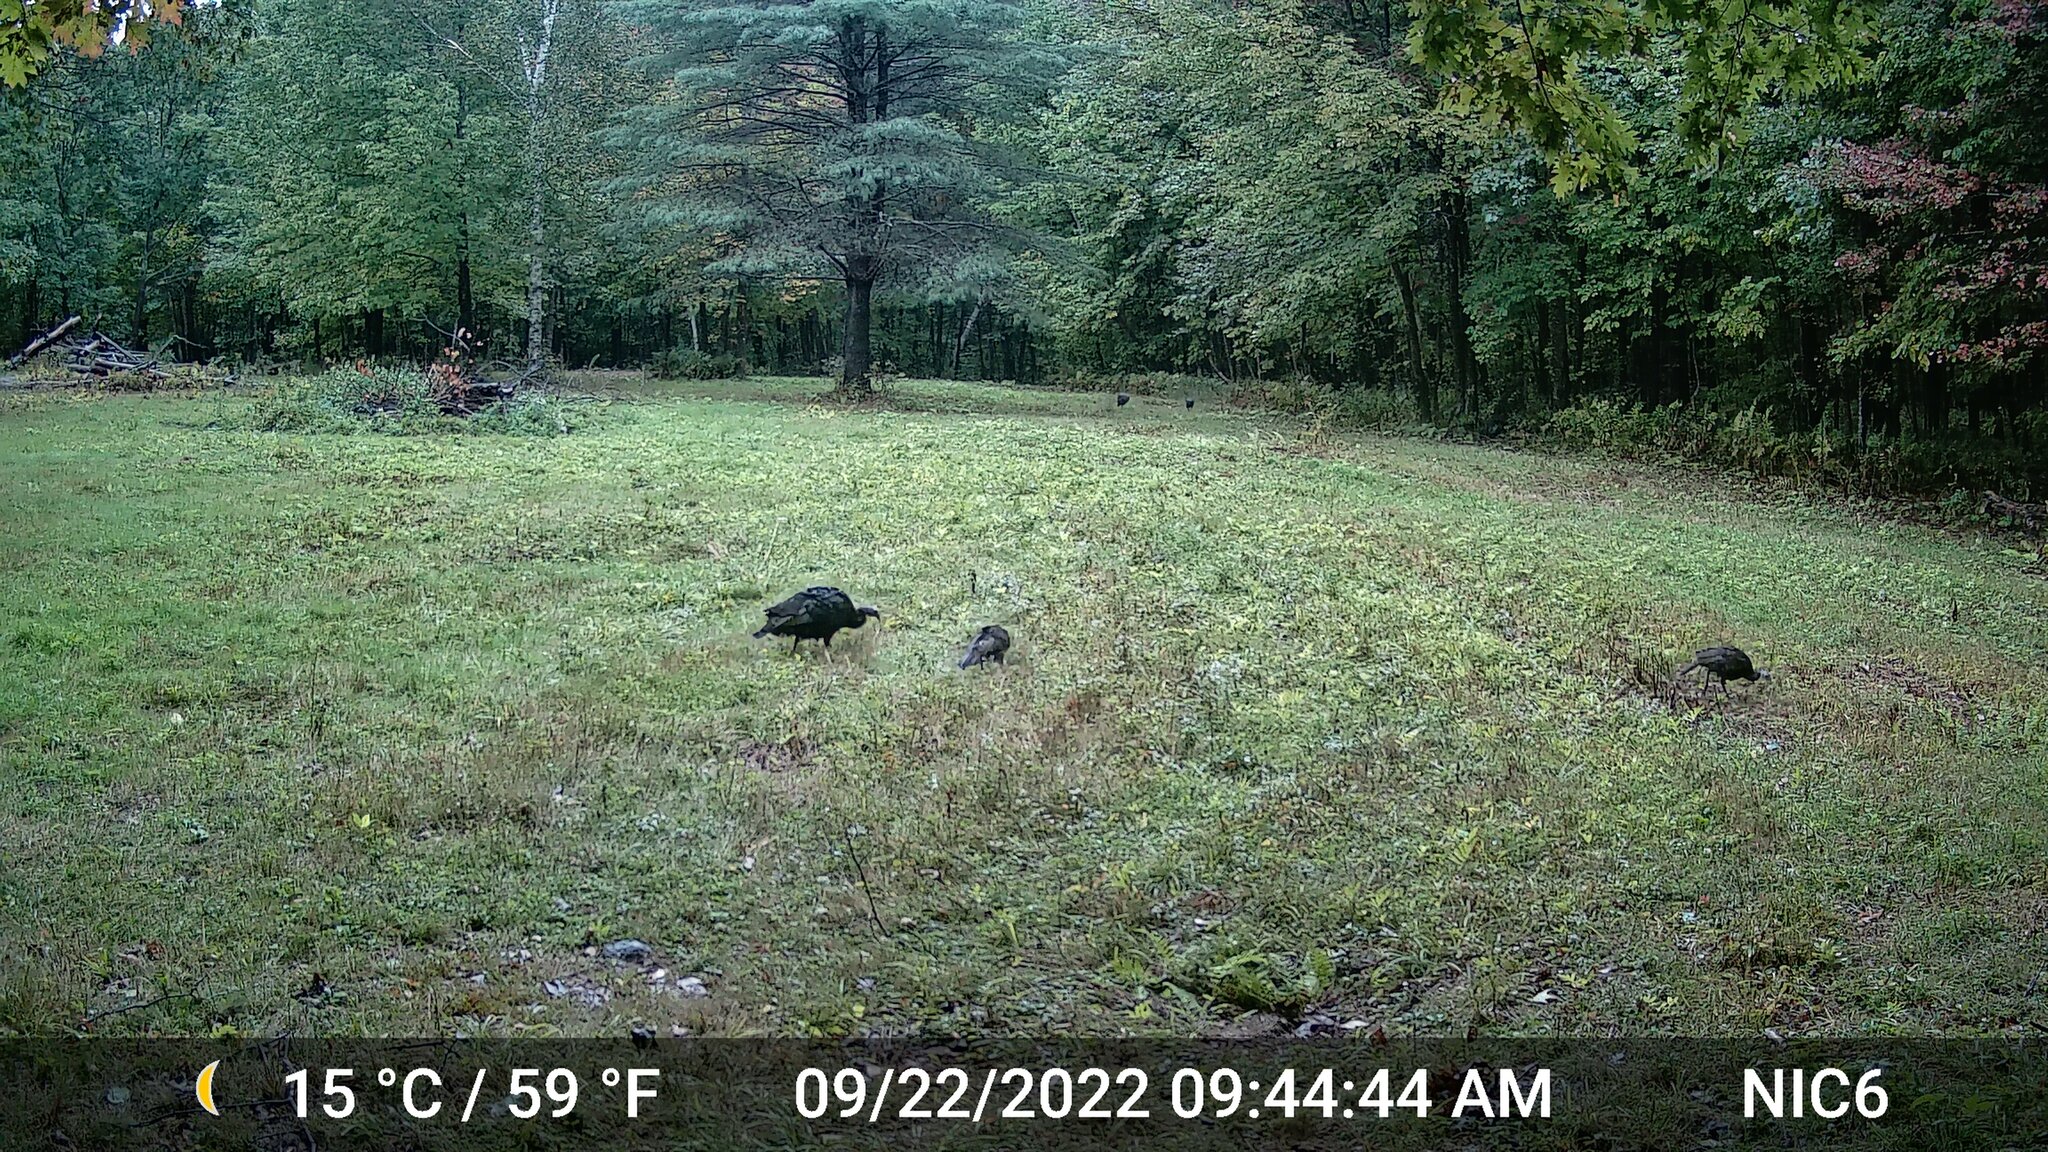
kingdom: Animalia
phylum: Chordata
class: Aves
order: Galliformes
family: Phasianidae
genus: Meleagris
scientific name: Meleagris gallopavo
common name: Wild turkey
